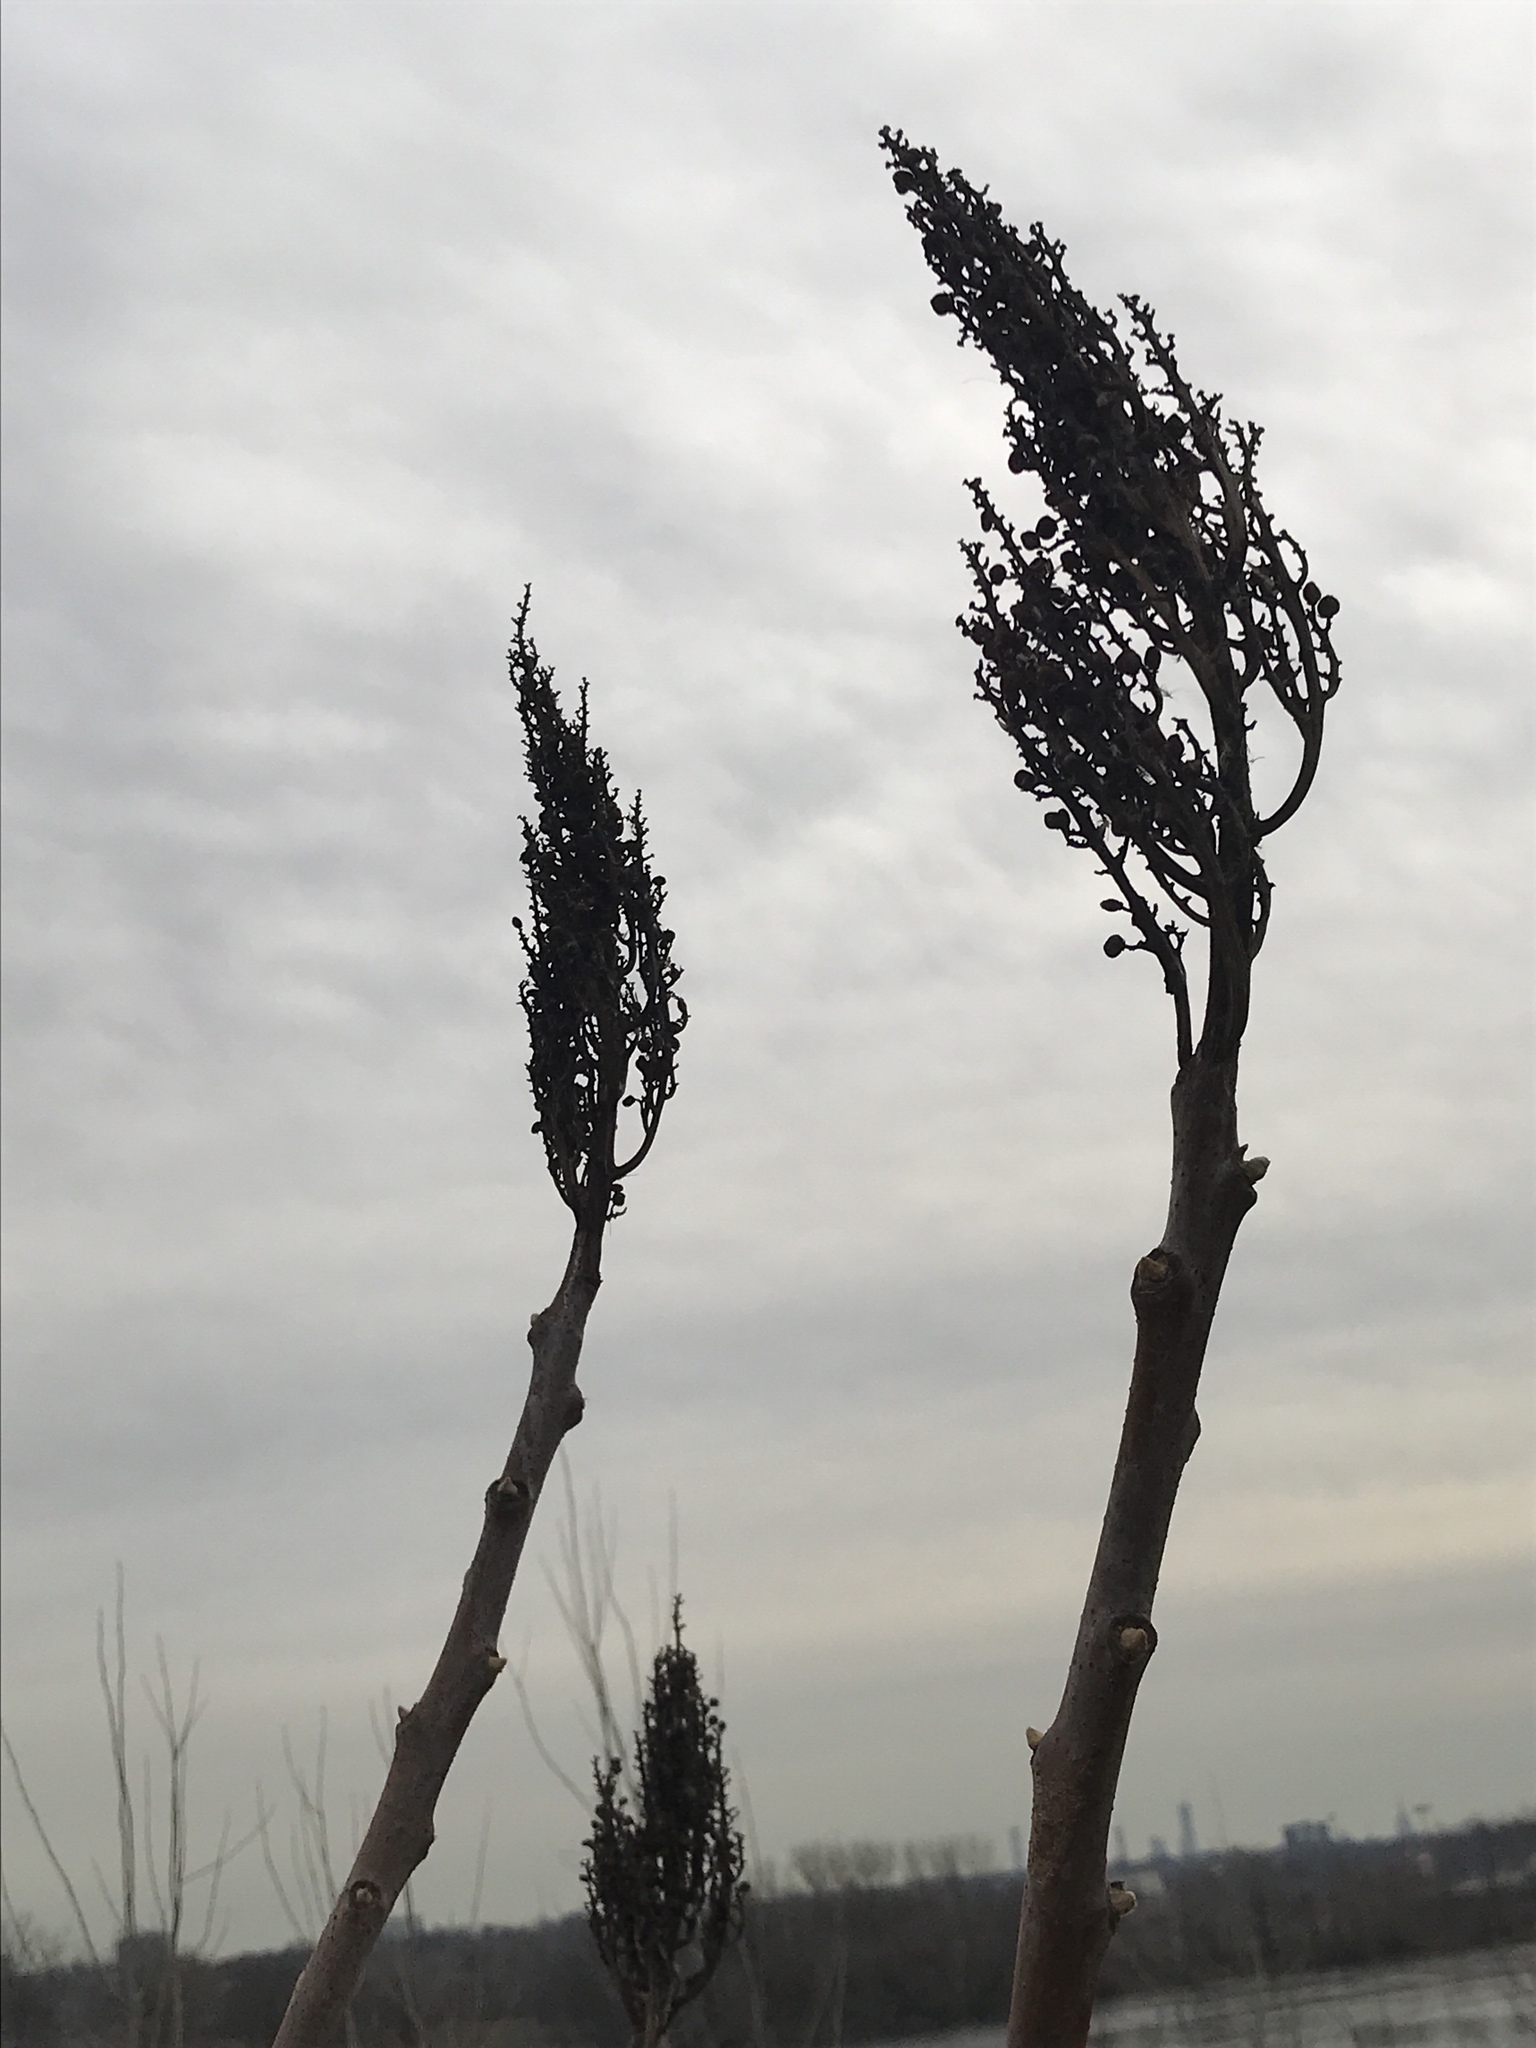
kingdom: Plantae
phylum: Tracheophyta
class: Magnoliopsida
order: Sapindales
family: Anacardiaceae
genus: Rhus
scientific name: Rhus glabra
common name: Scarlet sumac
